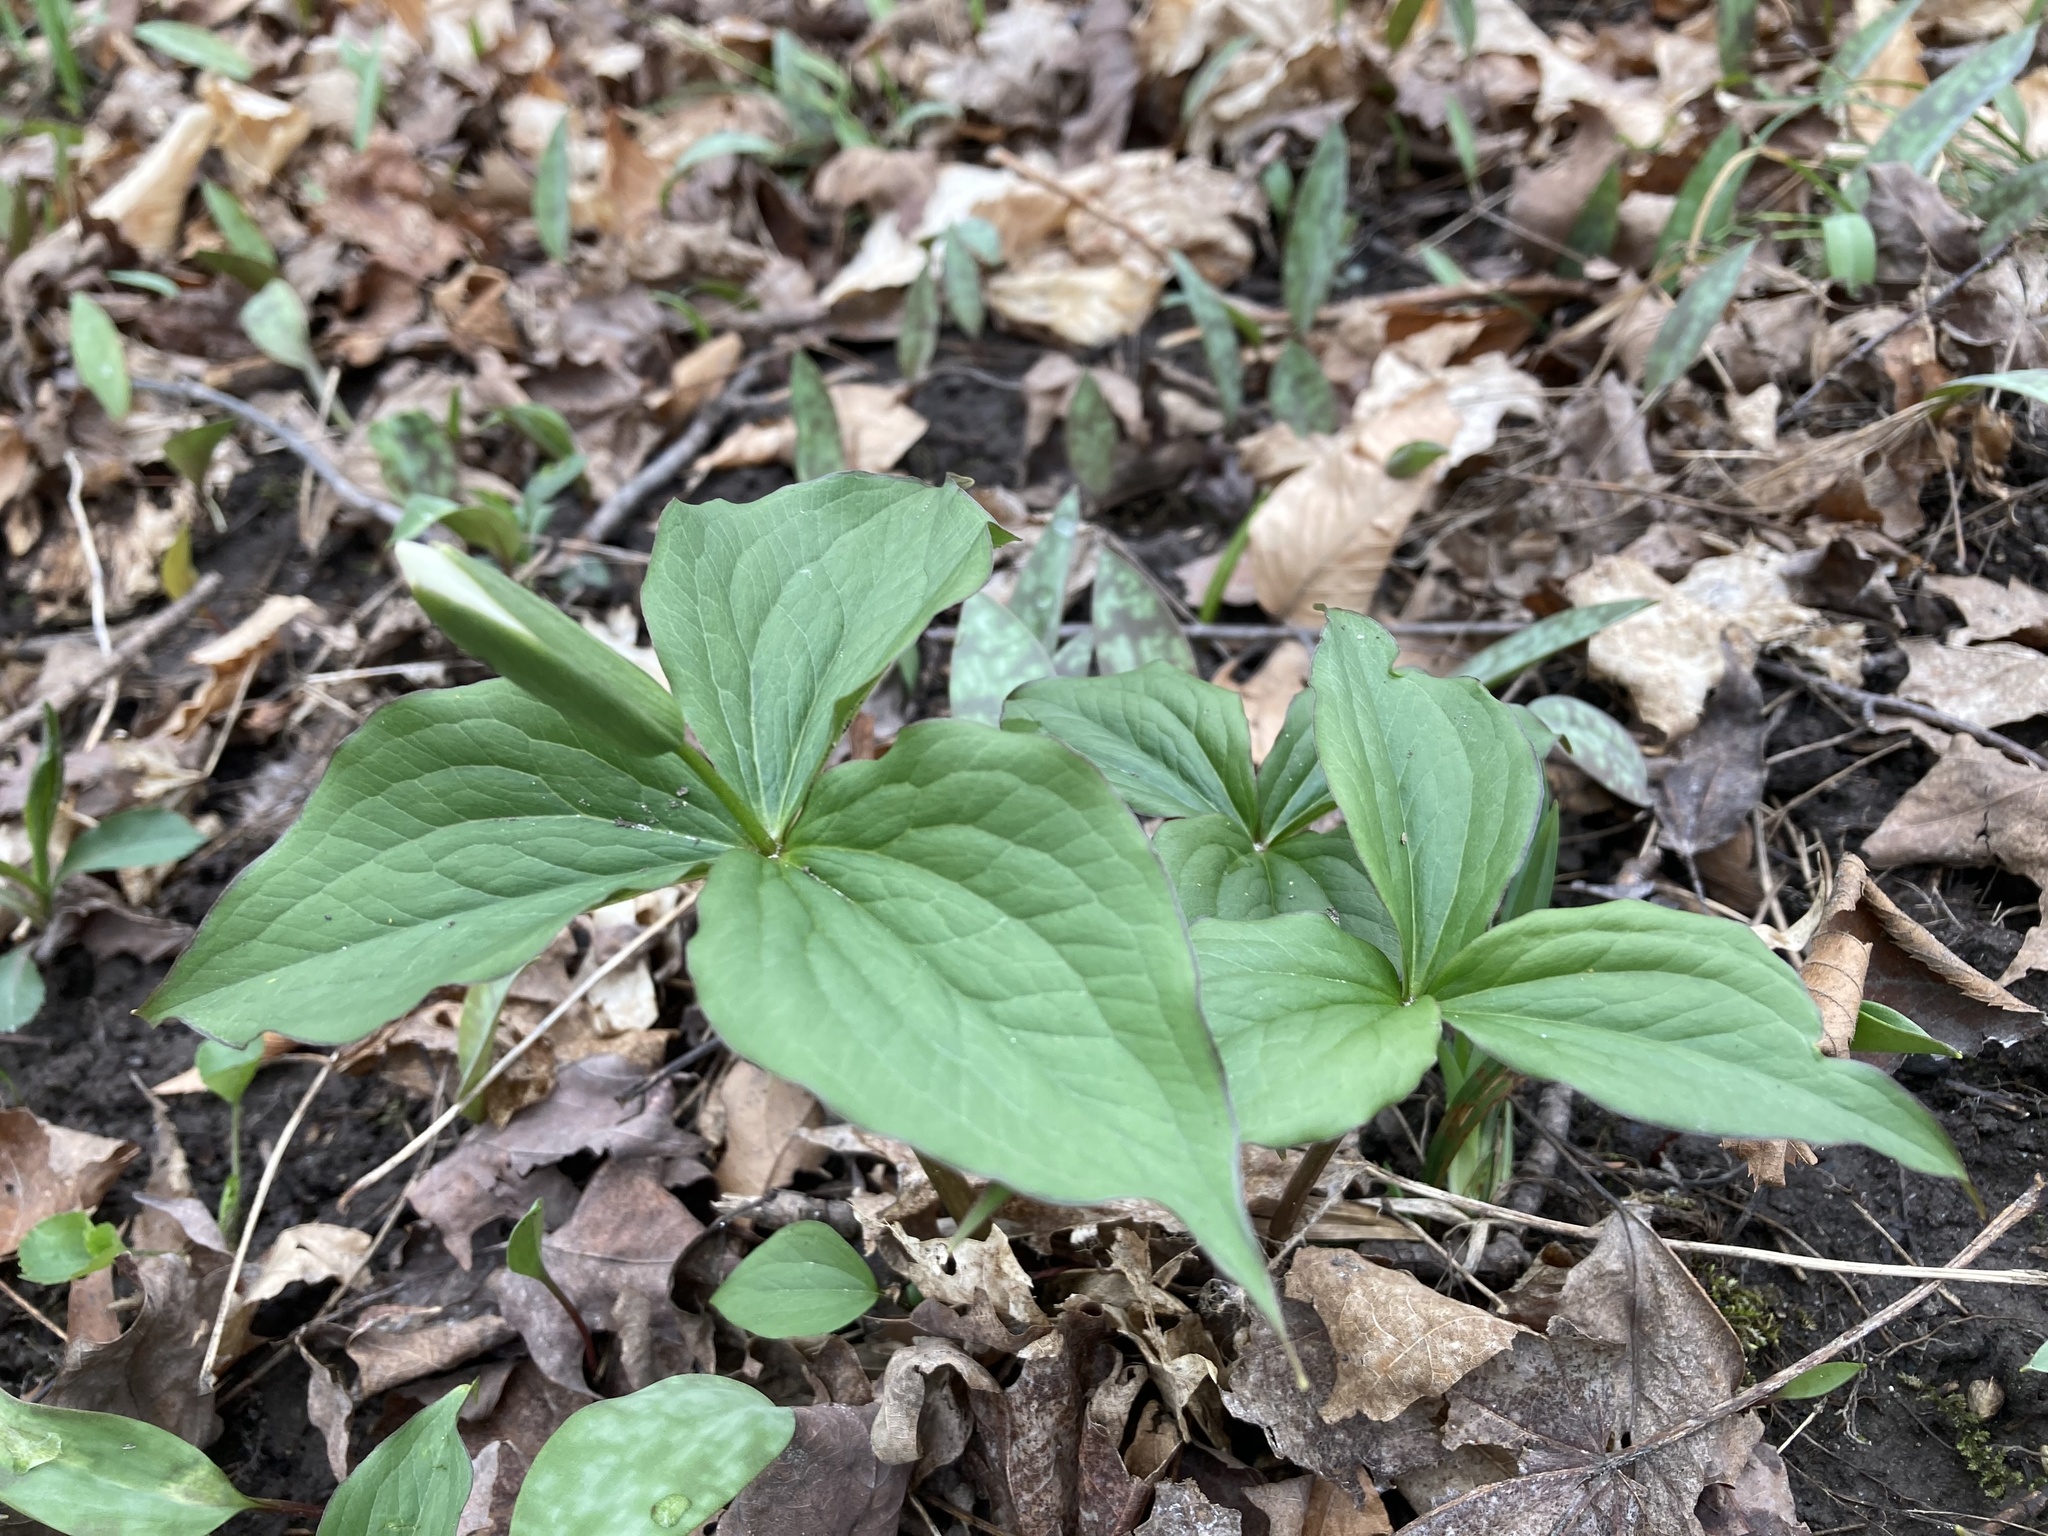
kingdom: Plantae
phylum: Tracheophyta
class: Liliopsida
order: Liliales
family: Melanthiaceae
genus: Trillium
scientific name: Trillium grandiflorum
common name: Great white trillium
